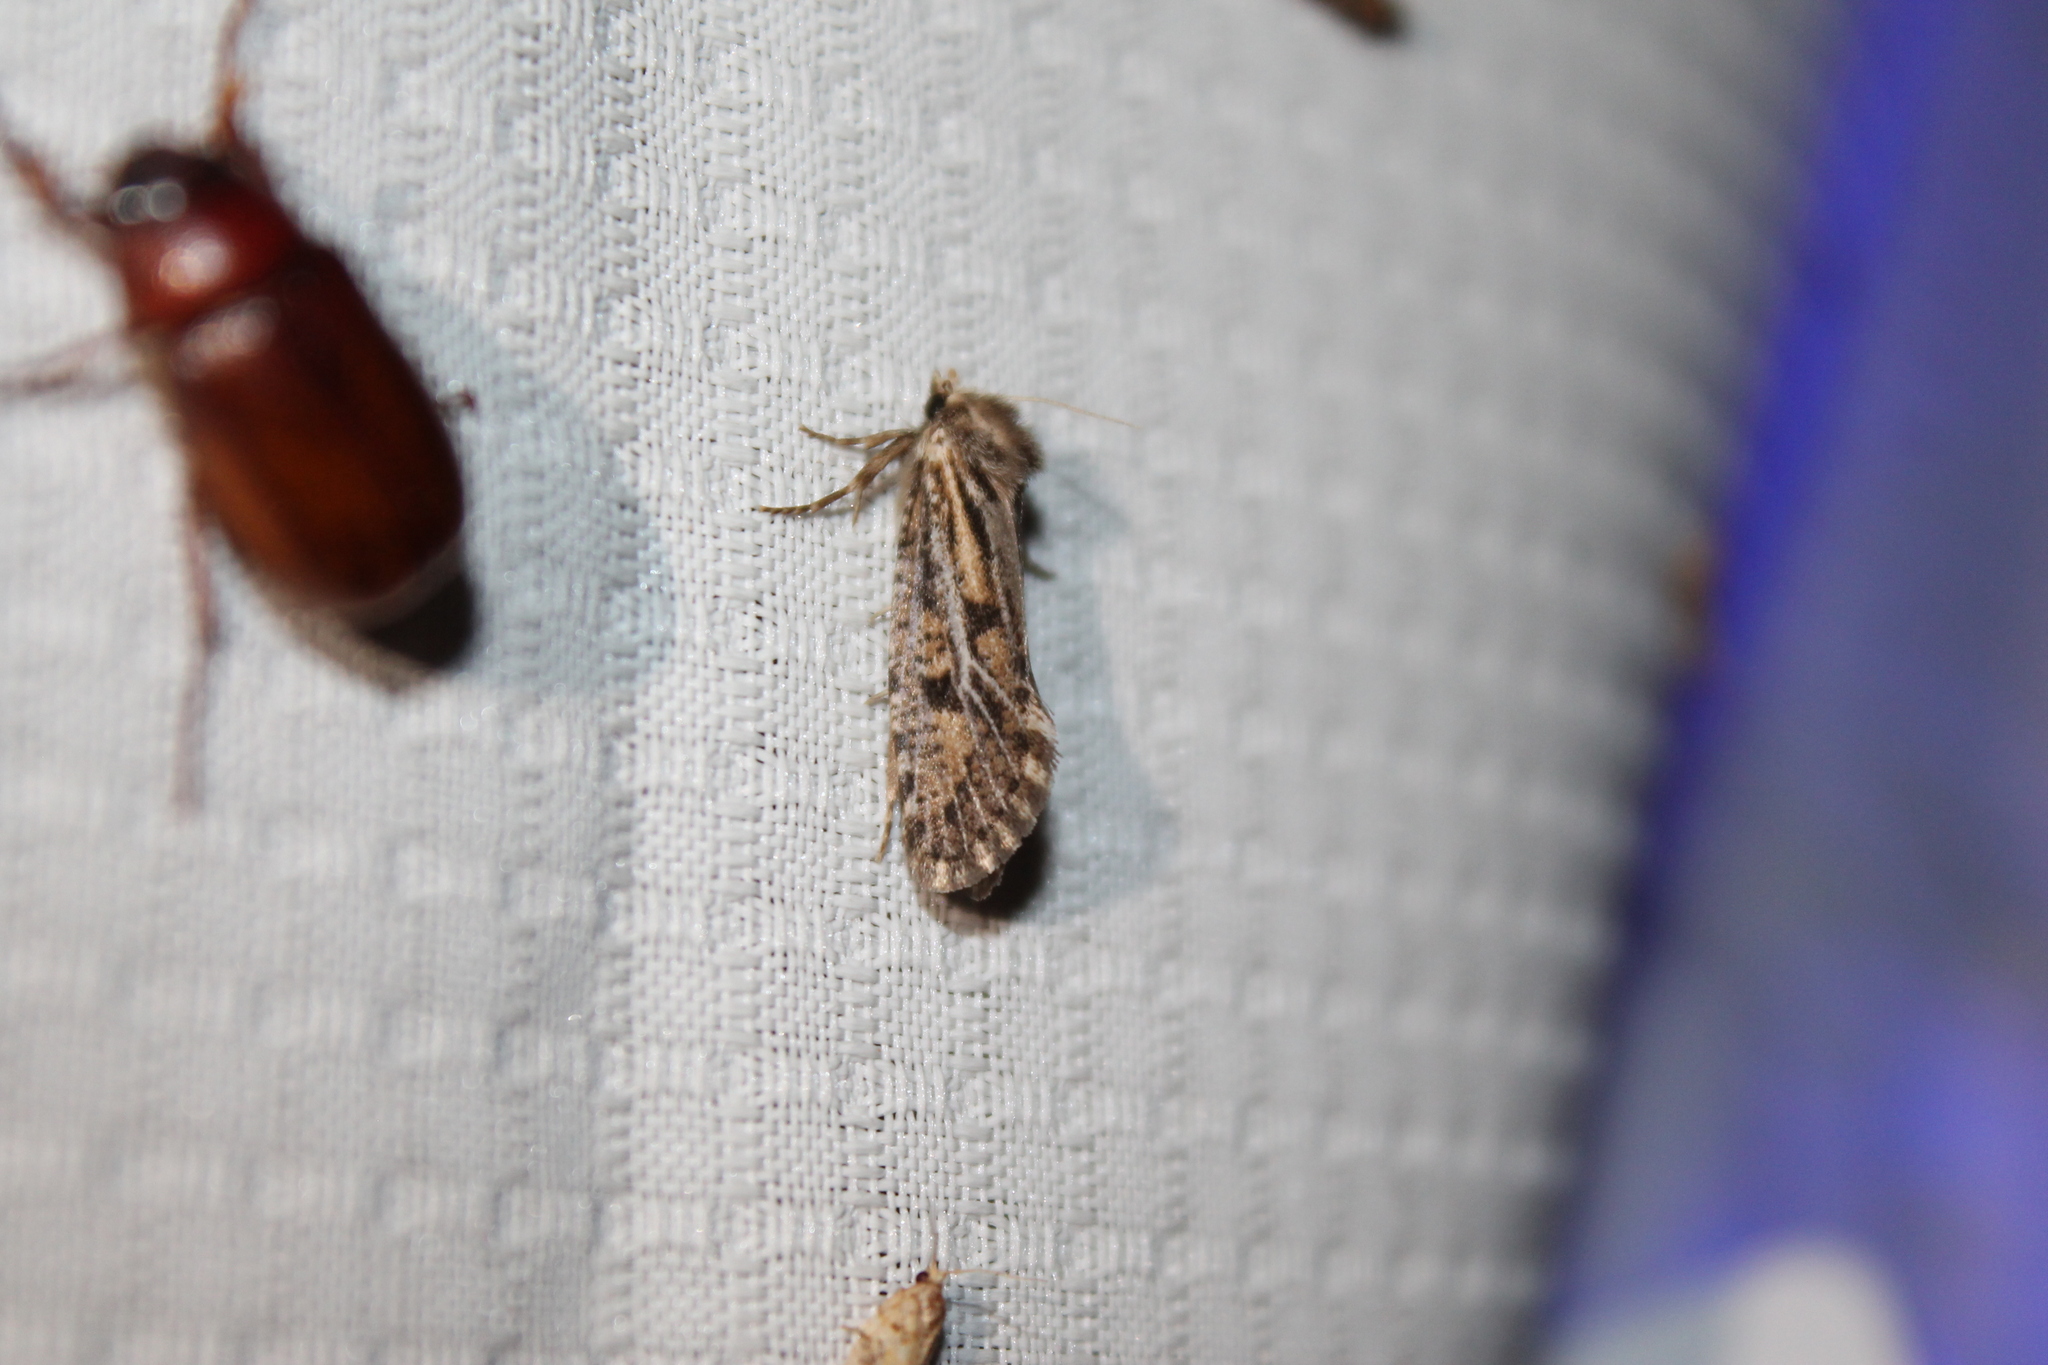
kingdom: Animalia
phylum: Arthropoda
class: Insecta
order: Lepidoptera
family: Tineidae
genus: Acrolophus
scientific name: Acrolophus popeanella
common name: Clemens' grass tubeworm moth
